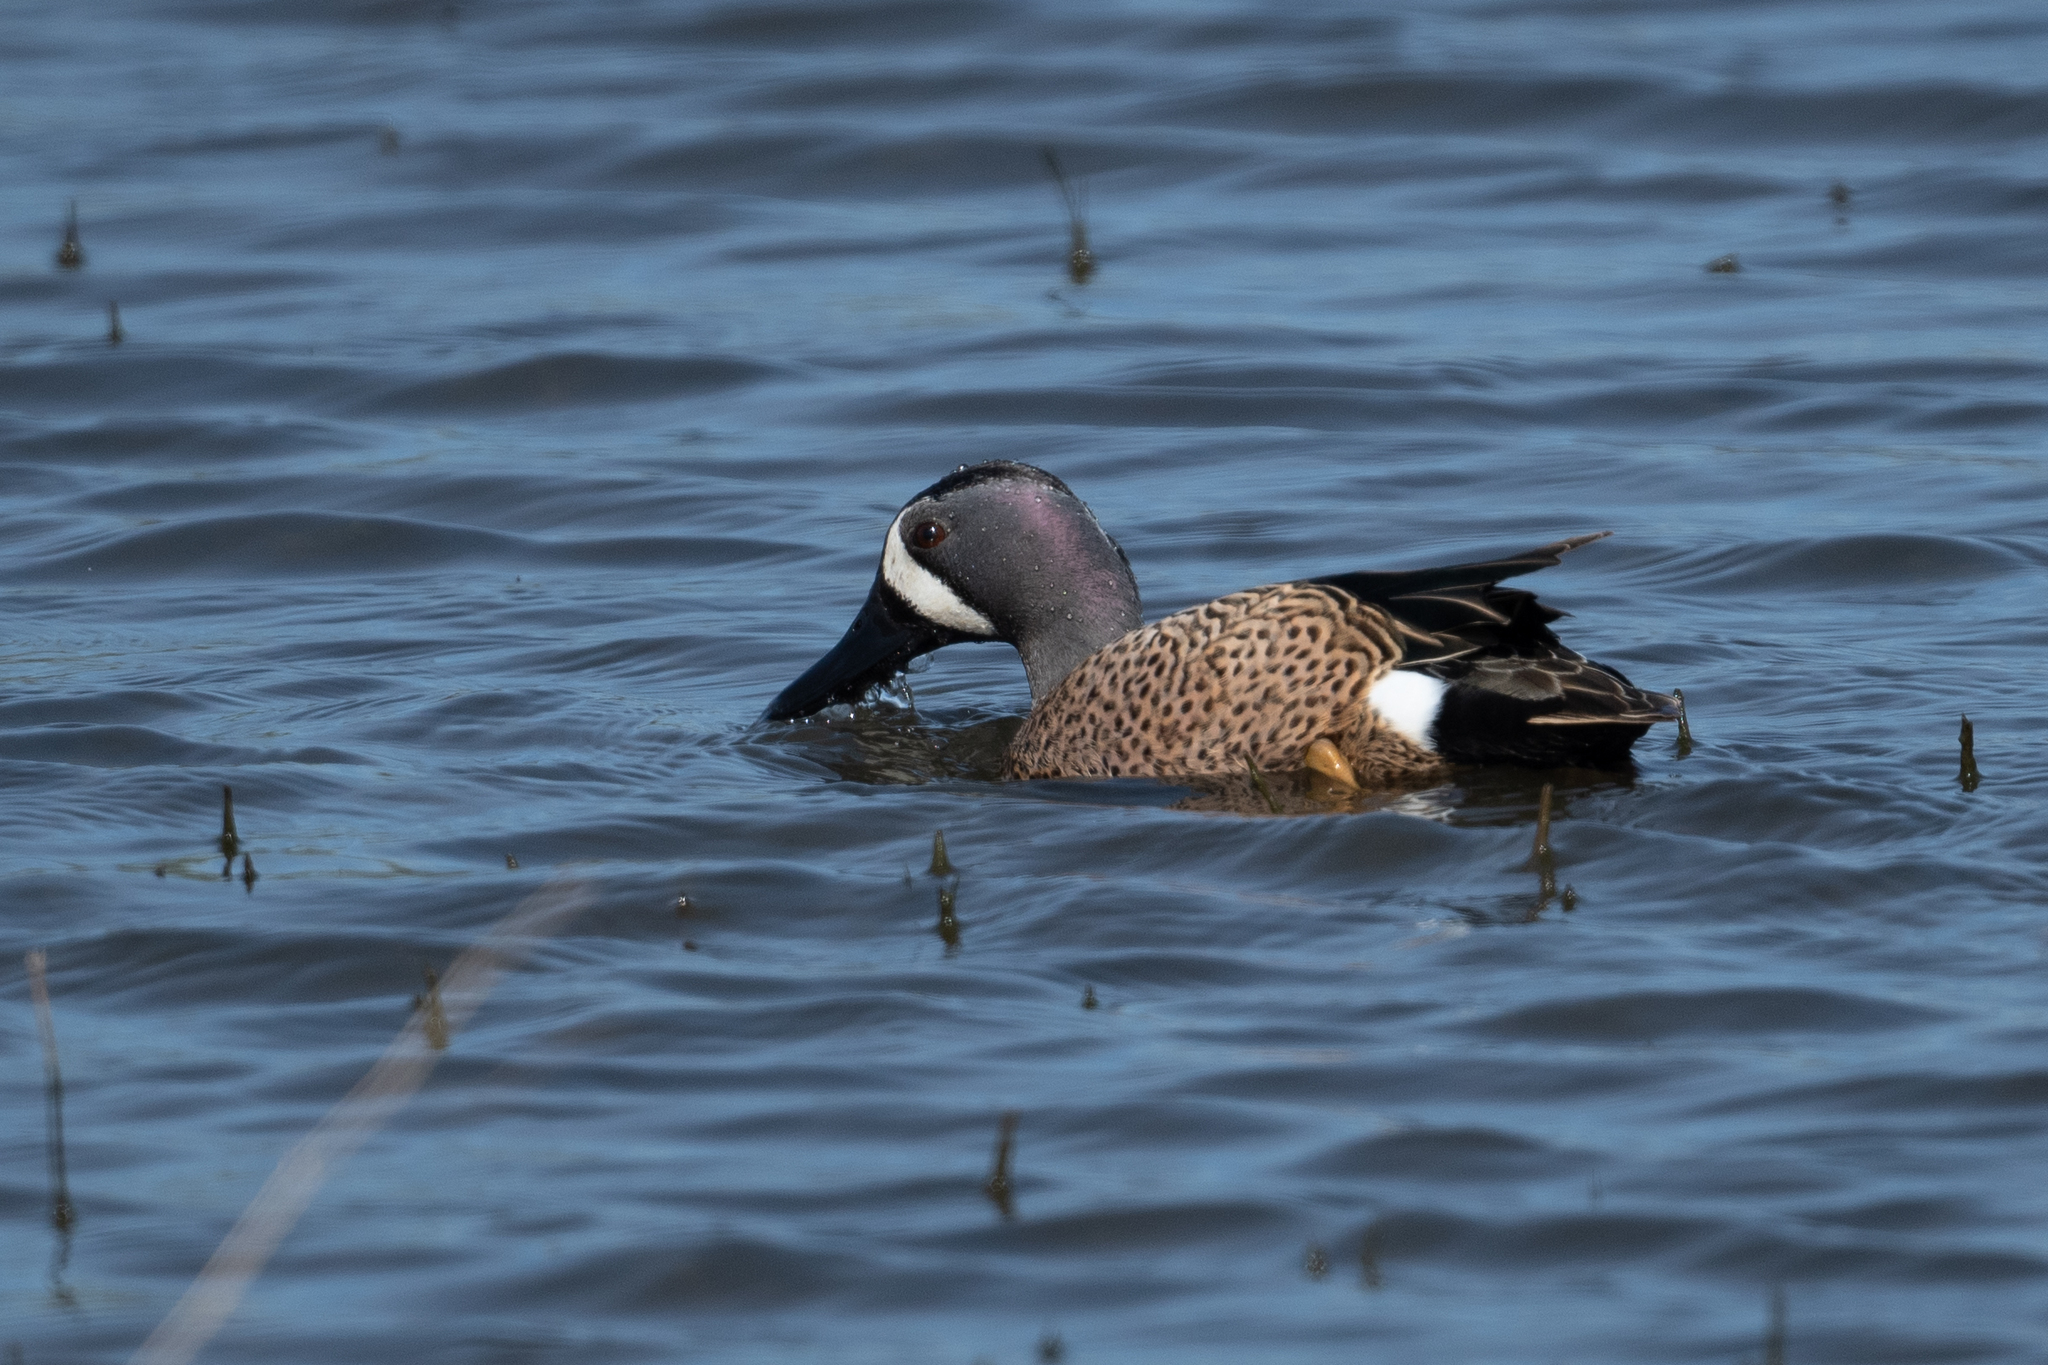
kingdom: Animalia
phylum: Chordata
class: Aves
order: Anseriformes
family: Anatidae
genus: Spatula
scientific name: Spatula discors
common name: Blue-winged teal
